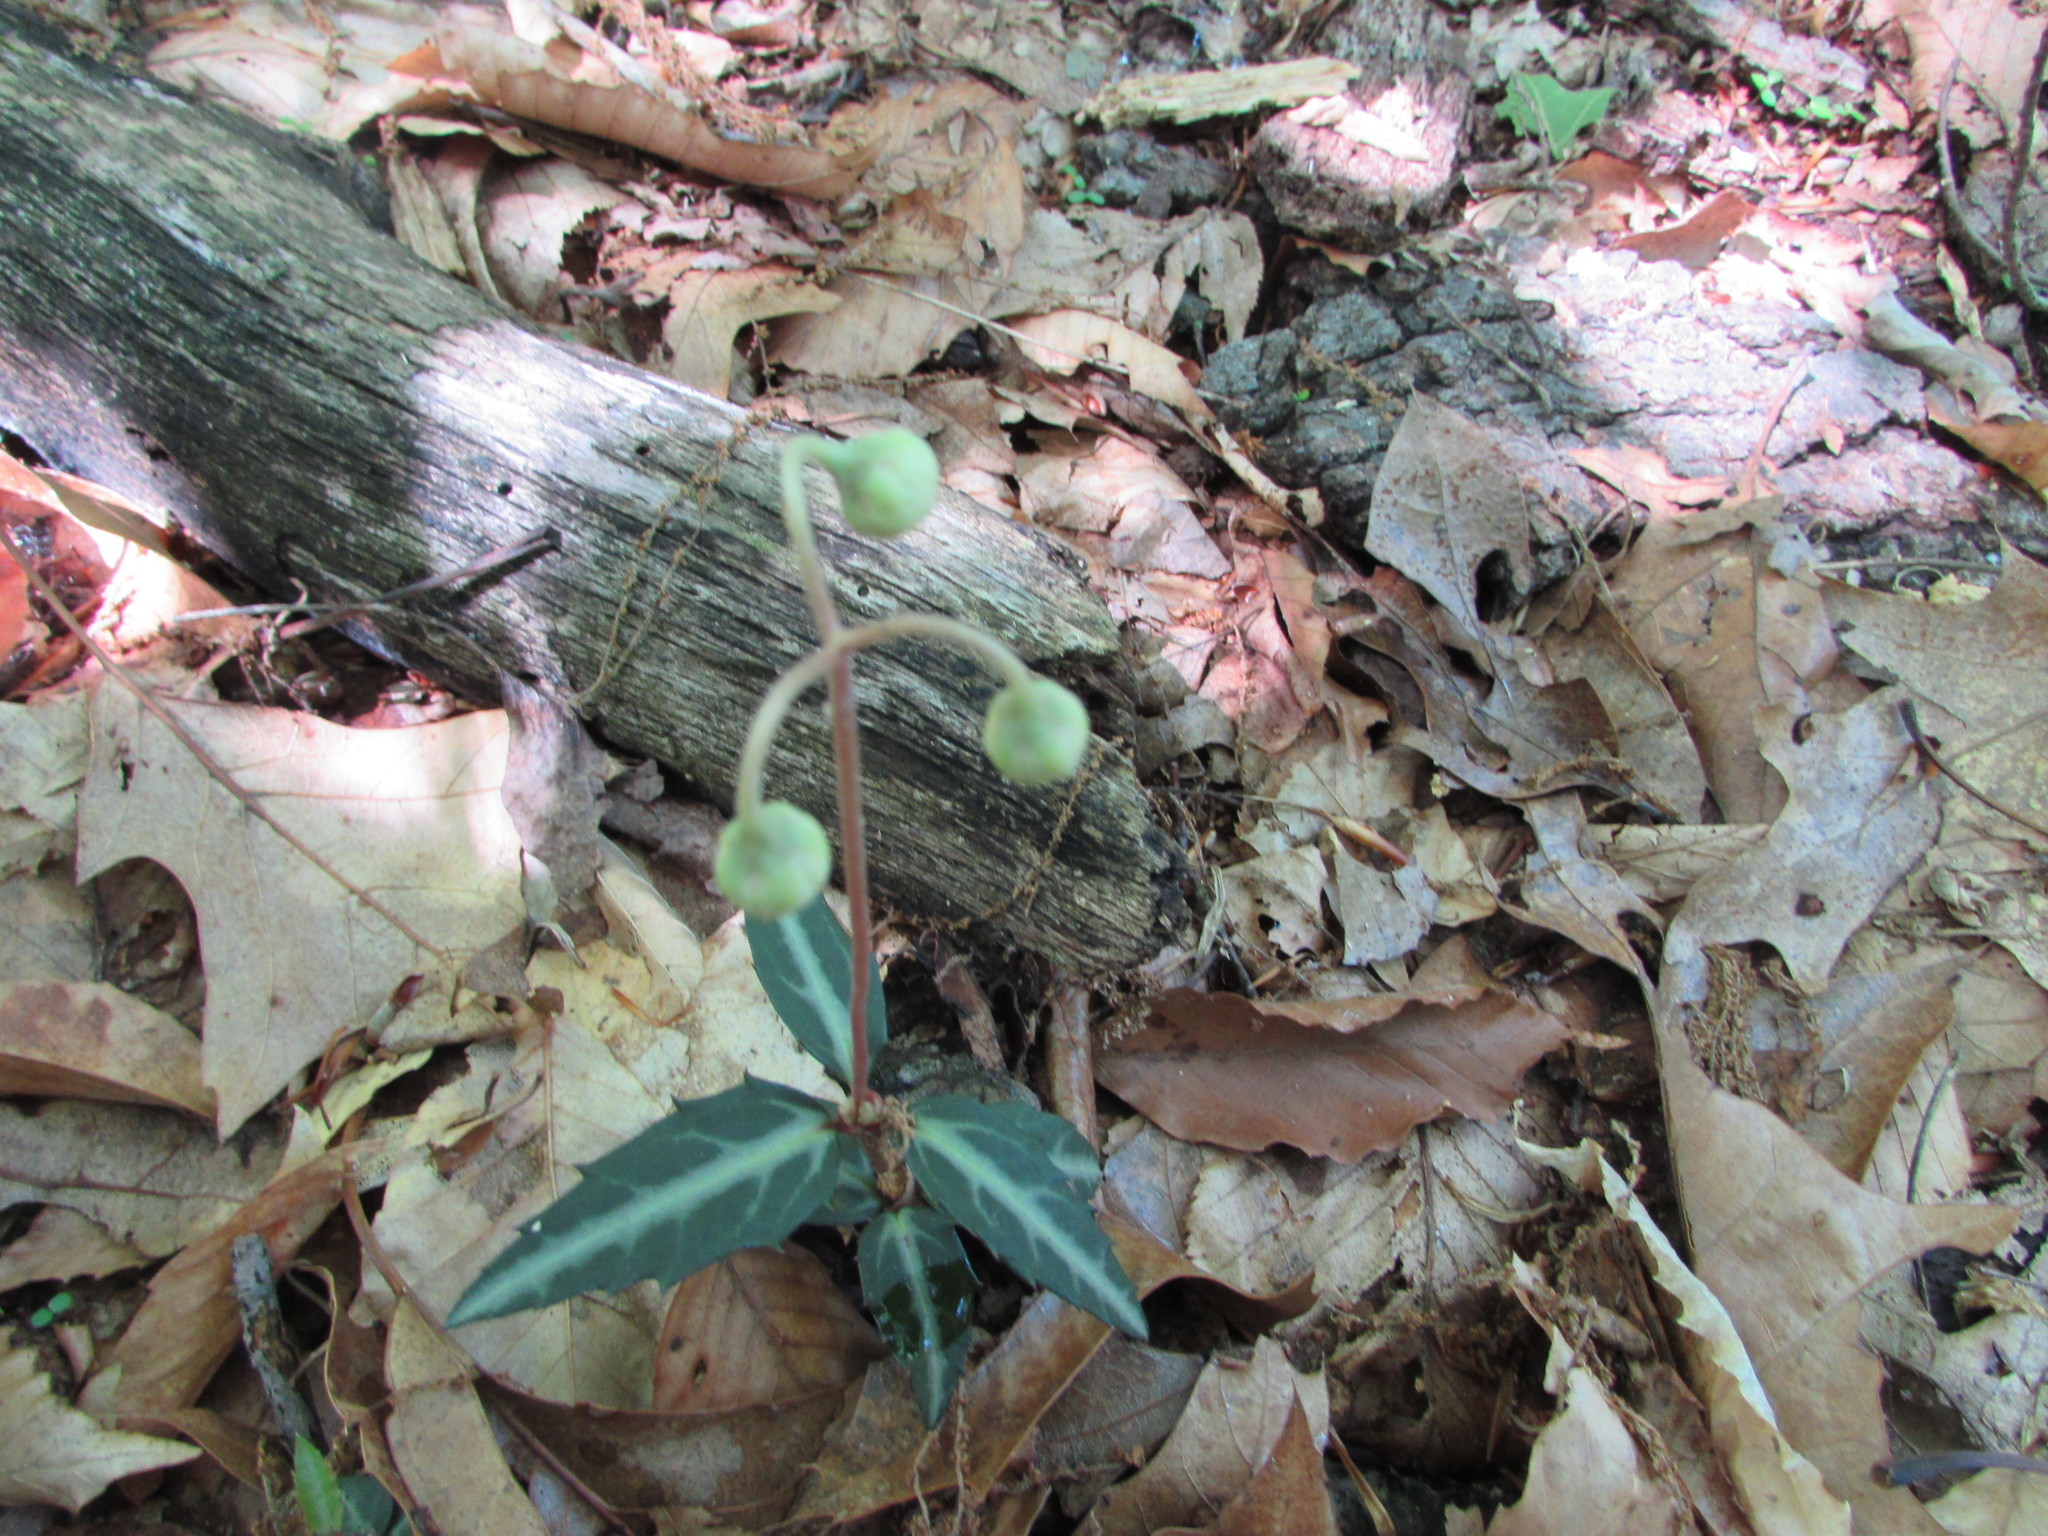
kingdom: Plantae
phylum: Tracheophyta
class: Magnoliopsida
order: Ericales
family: Ericaceae
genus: Chimaphila
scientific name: Chimaphila maculata
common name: Spotted pipsissewa
